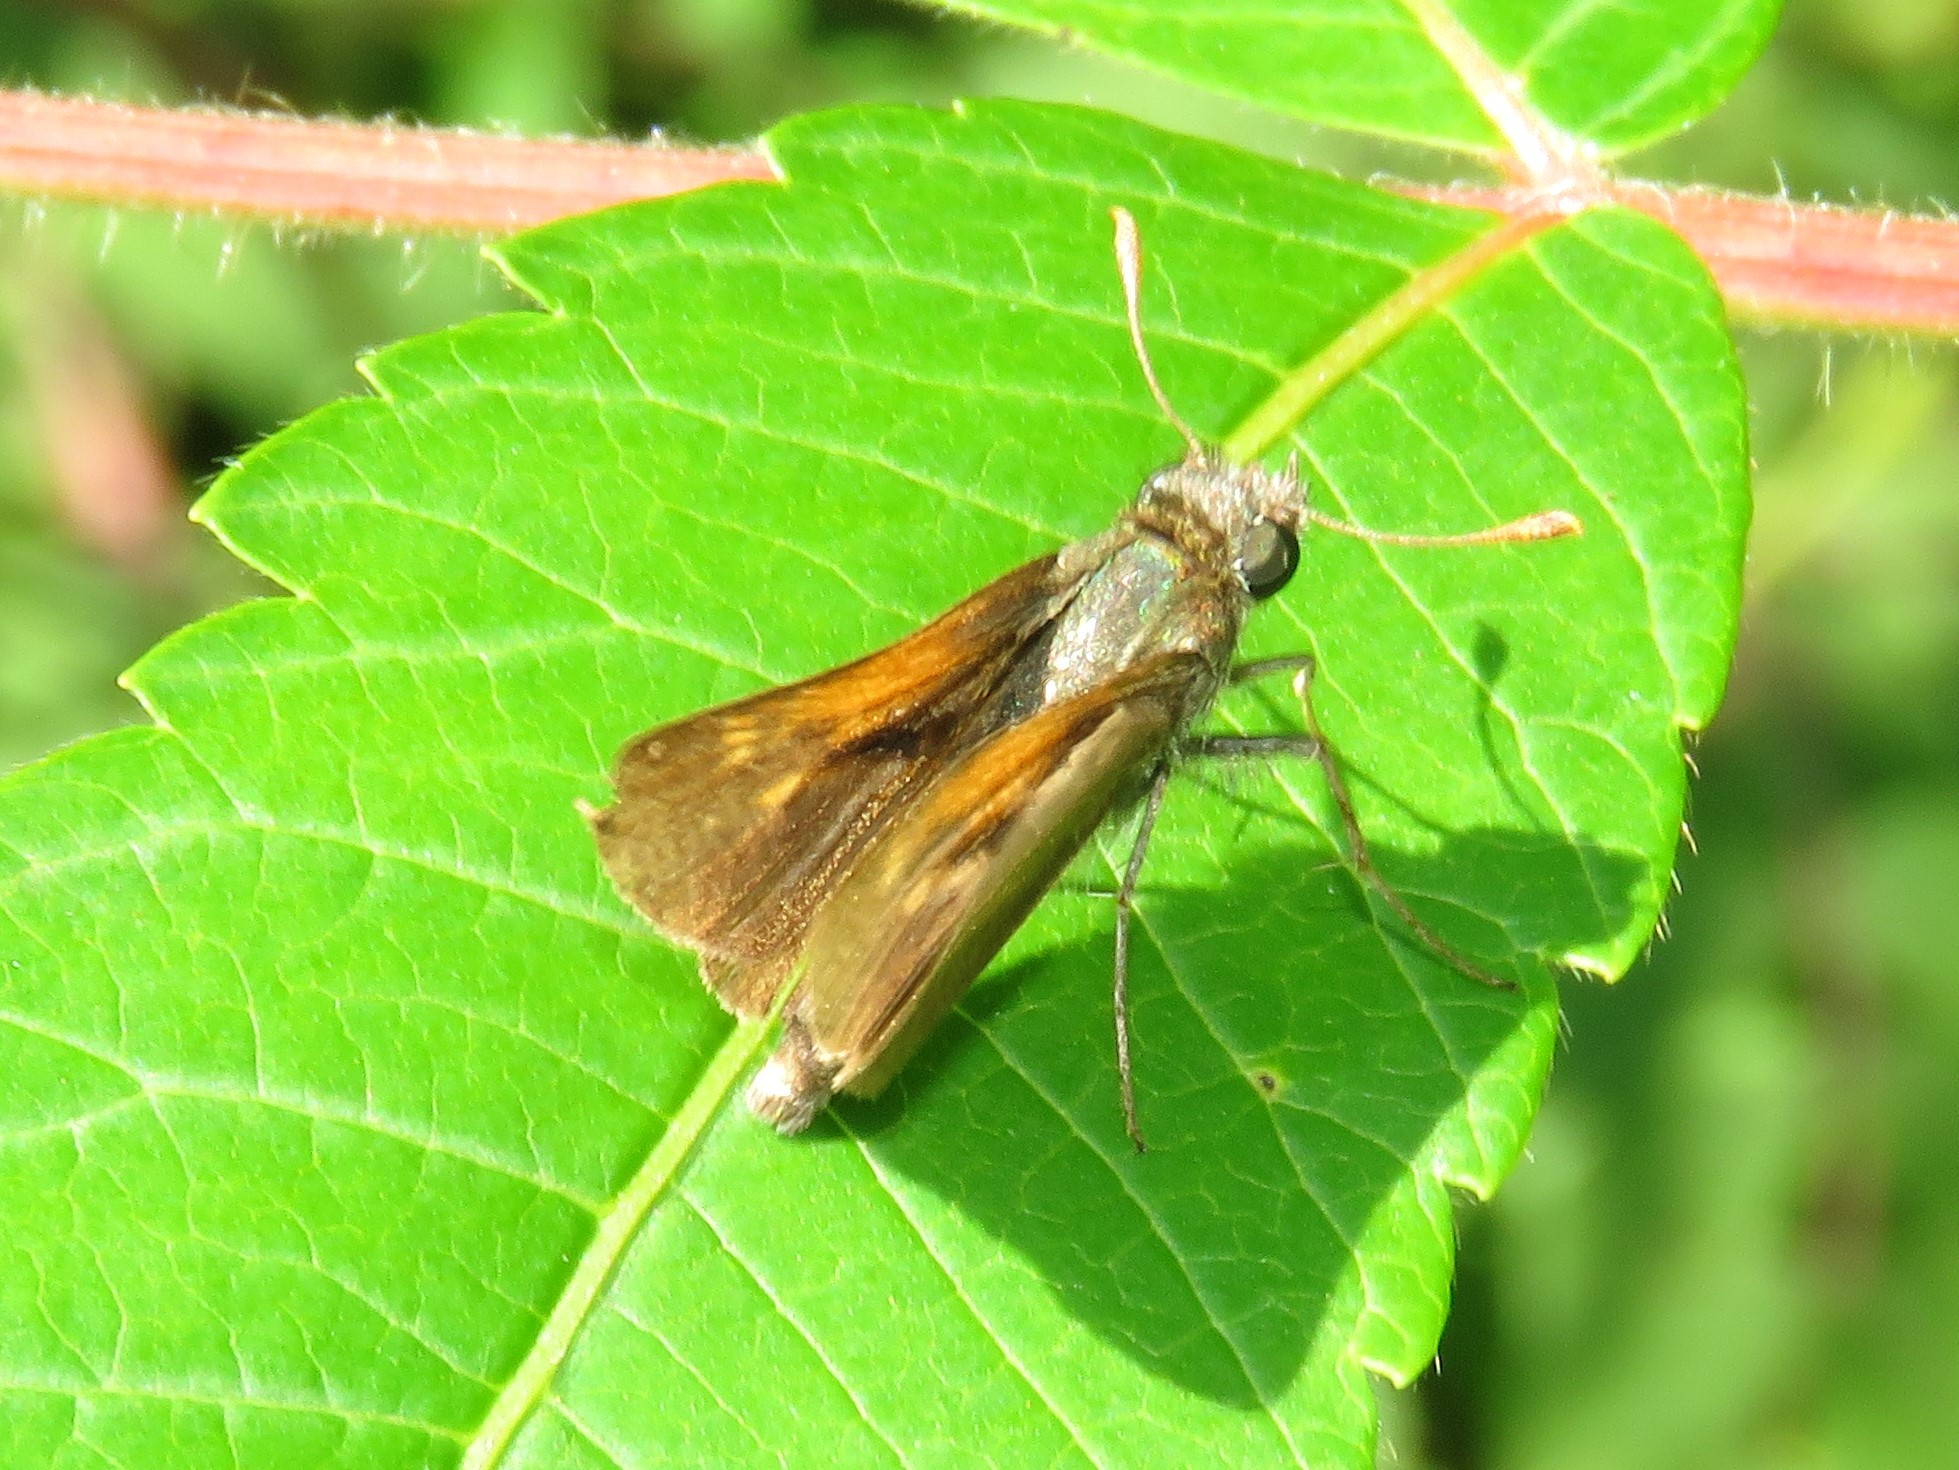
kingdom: Animalia
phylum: Arthropoda
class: Insecta
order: Lepidoptera
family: Hesperiidae
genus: Polites
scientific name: Polites themistocles
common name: Tawny-edged skipper
